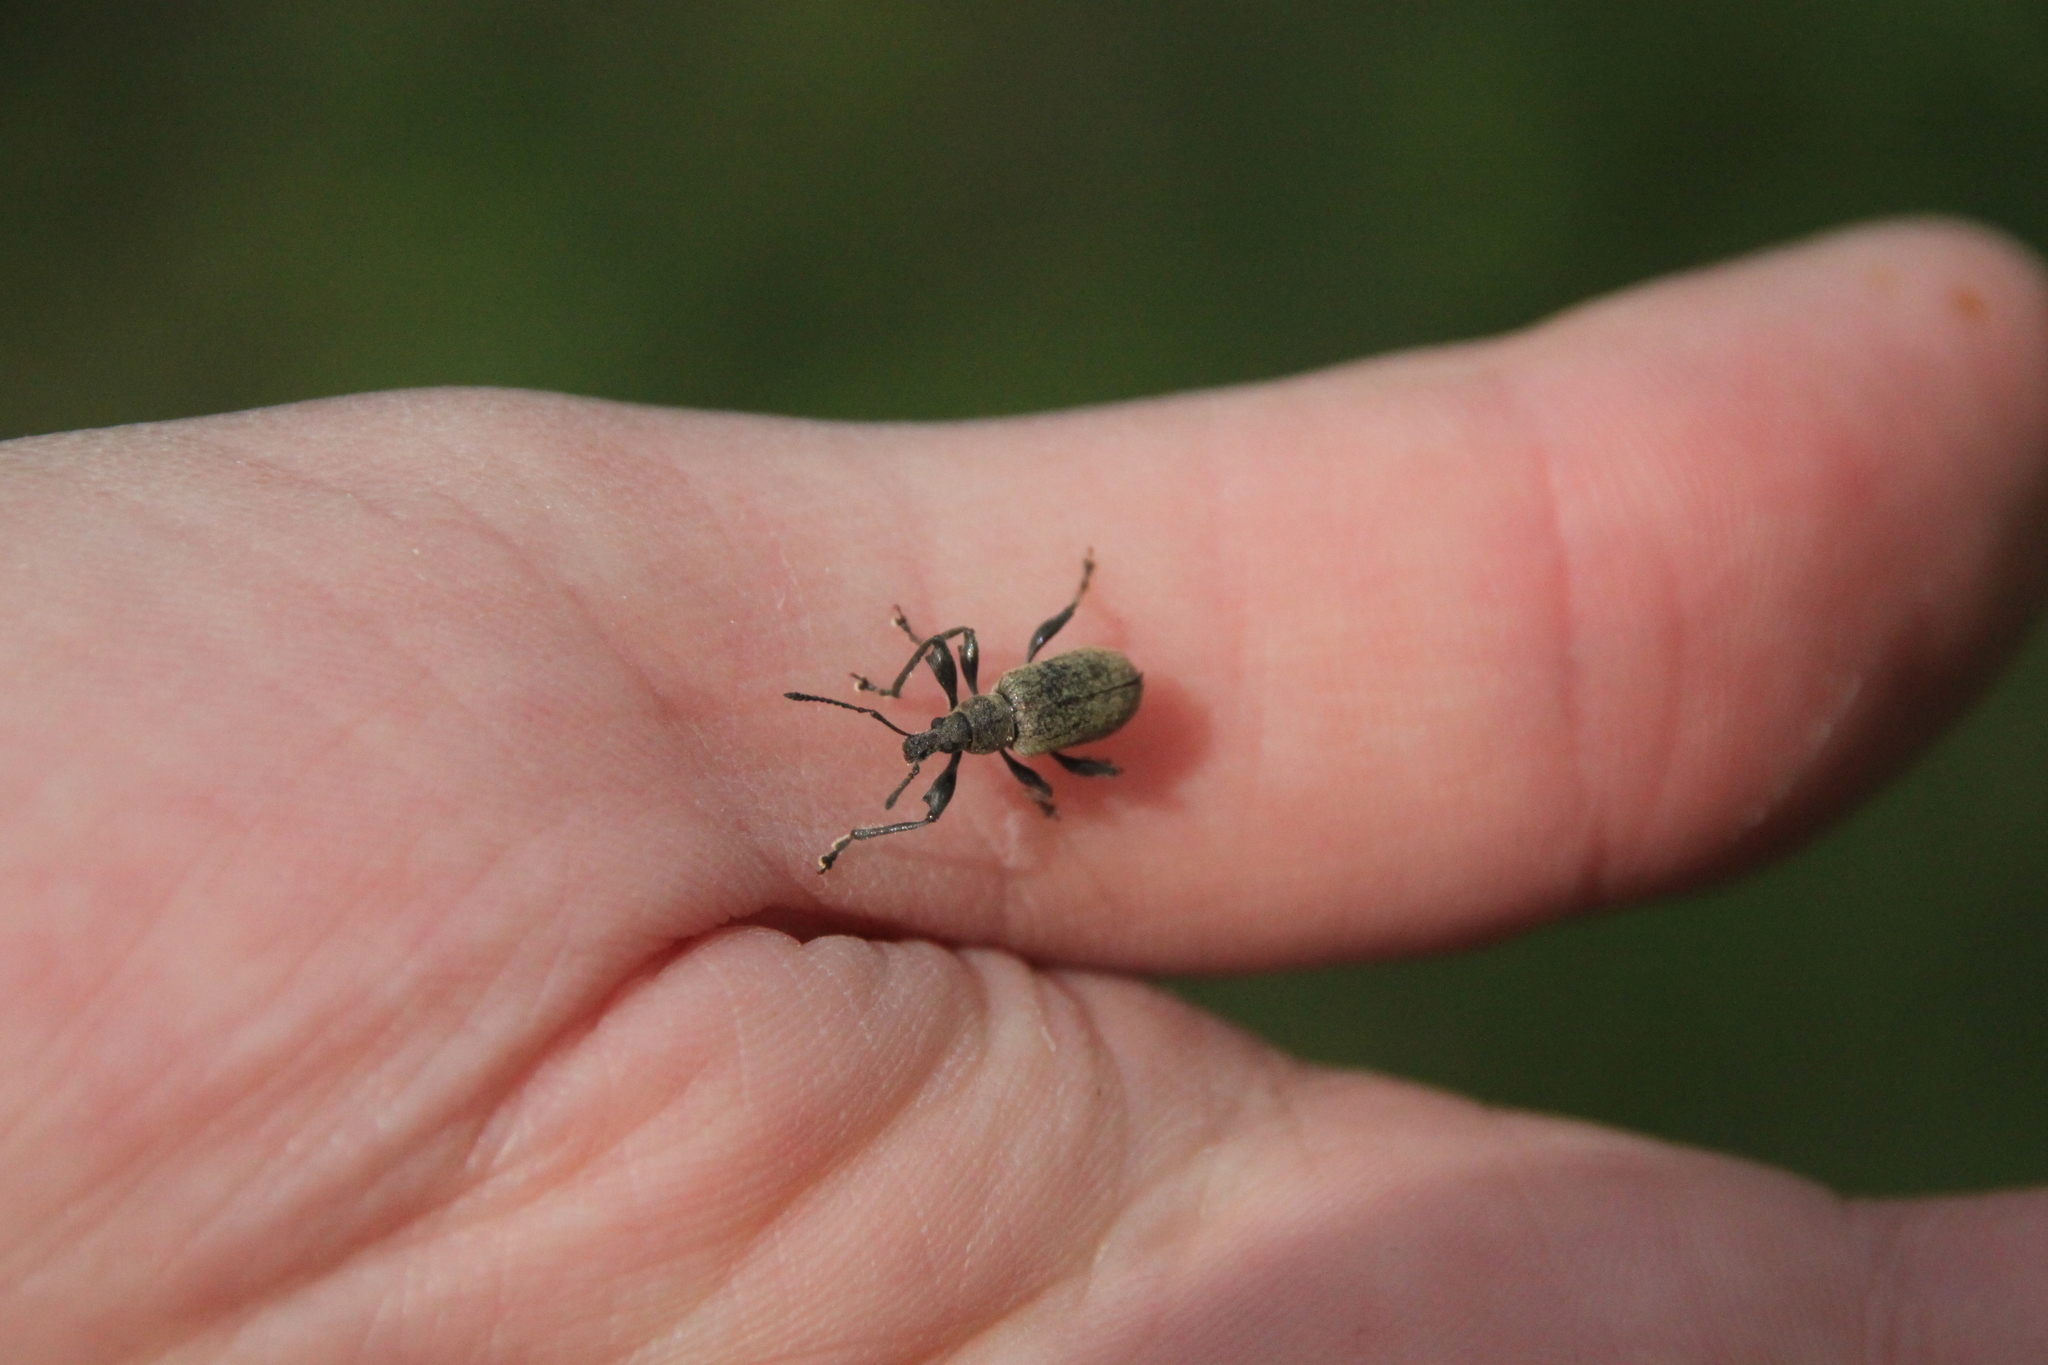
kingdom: Animalia
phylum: Arthropoda
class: Insecta
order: Coleoptera
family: Curculionidae
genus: Phyllobius
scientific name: Phyllobius
